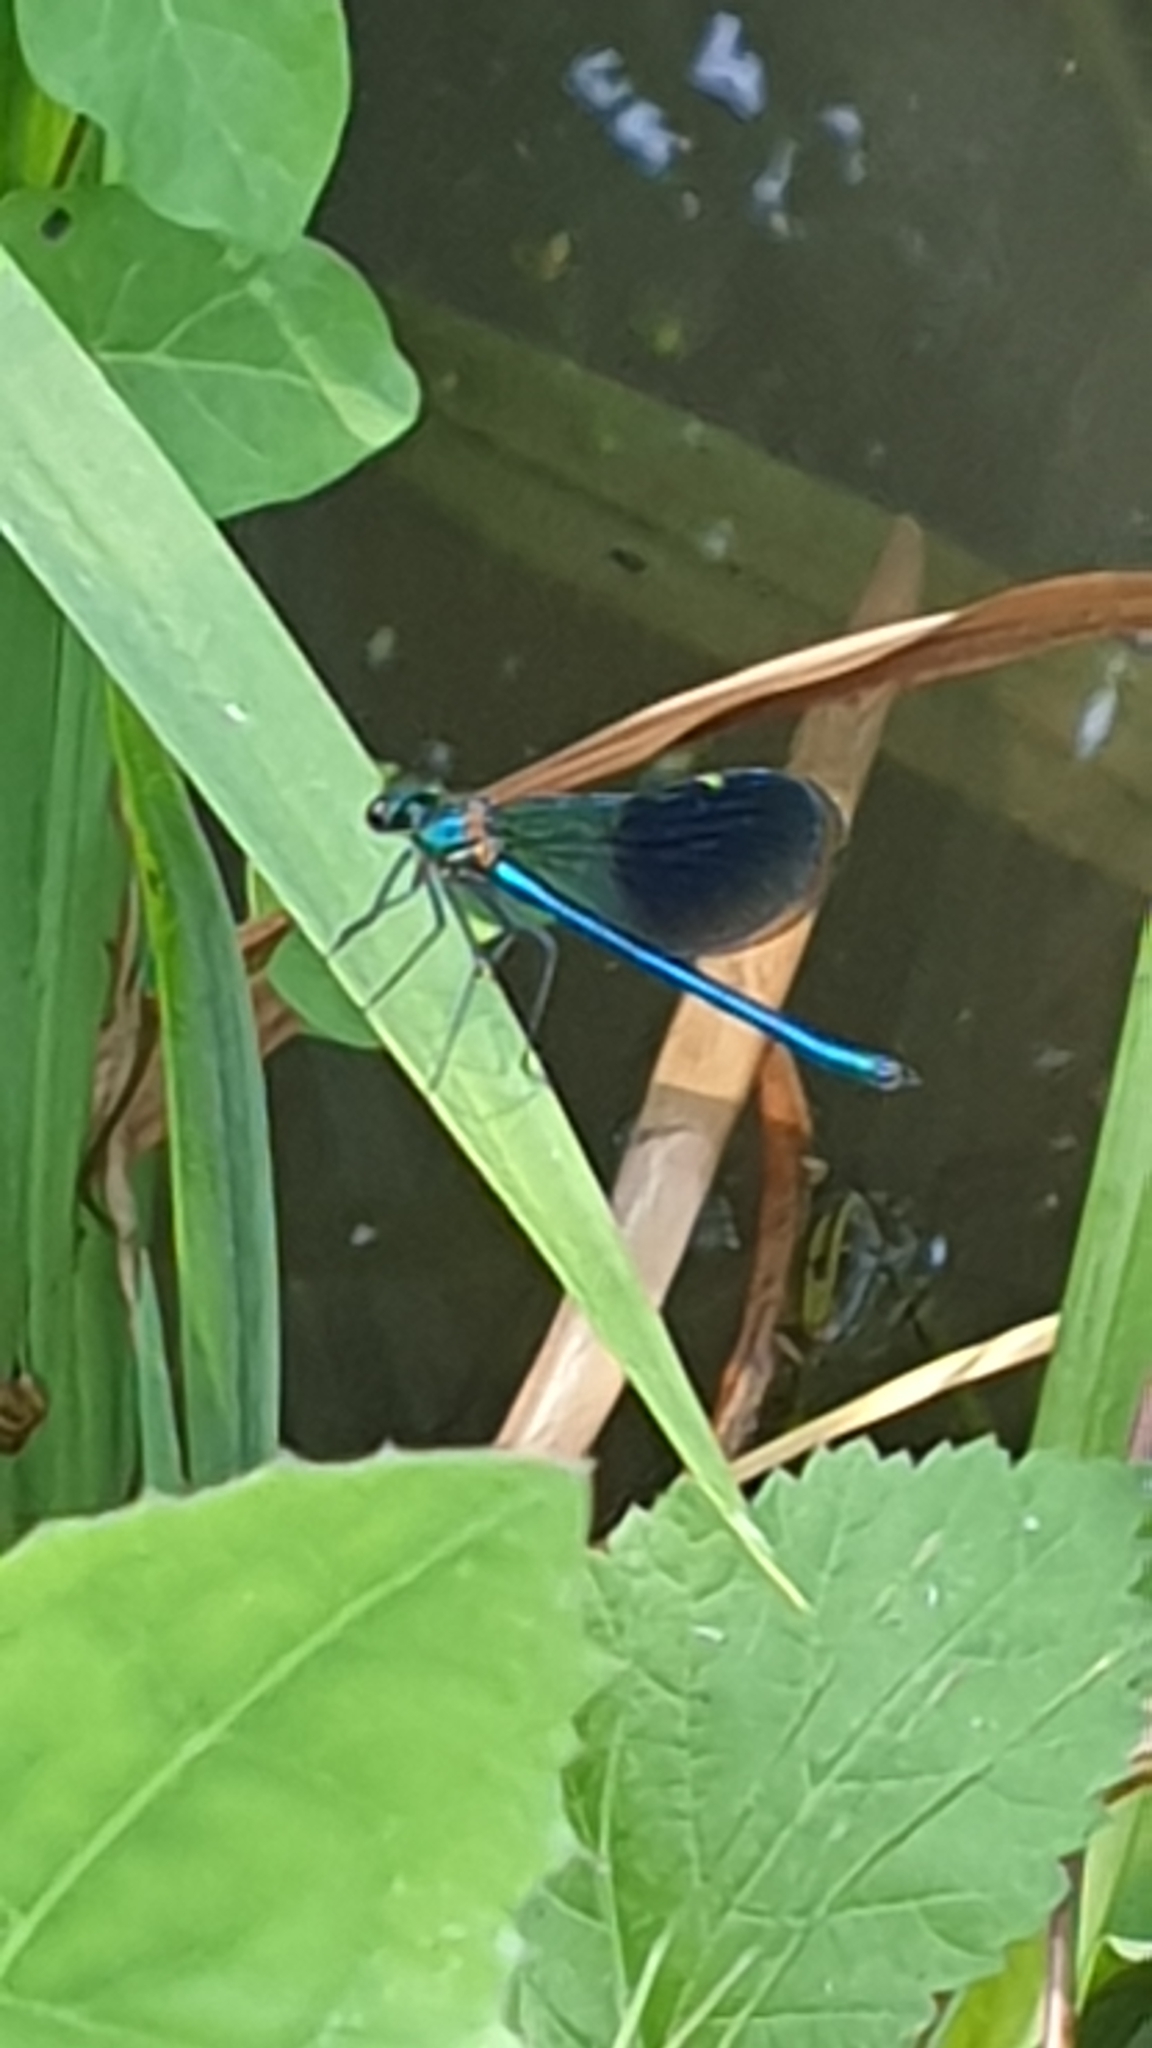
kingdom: Animalia
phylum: Arthropoda
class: Insecta
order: Odonata
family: Calopterygidae
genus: Calopteryx
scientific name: Calopteryx xanthostoma
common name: Western demoiselle
